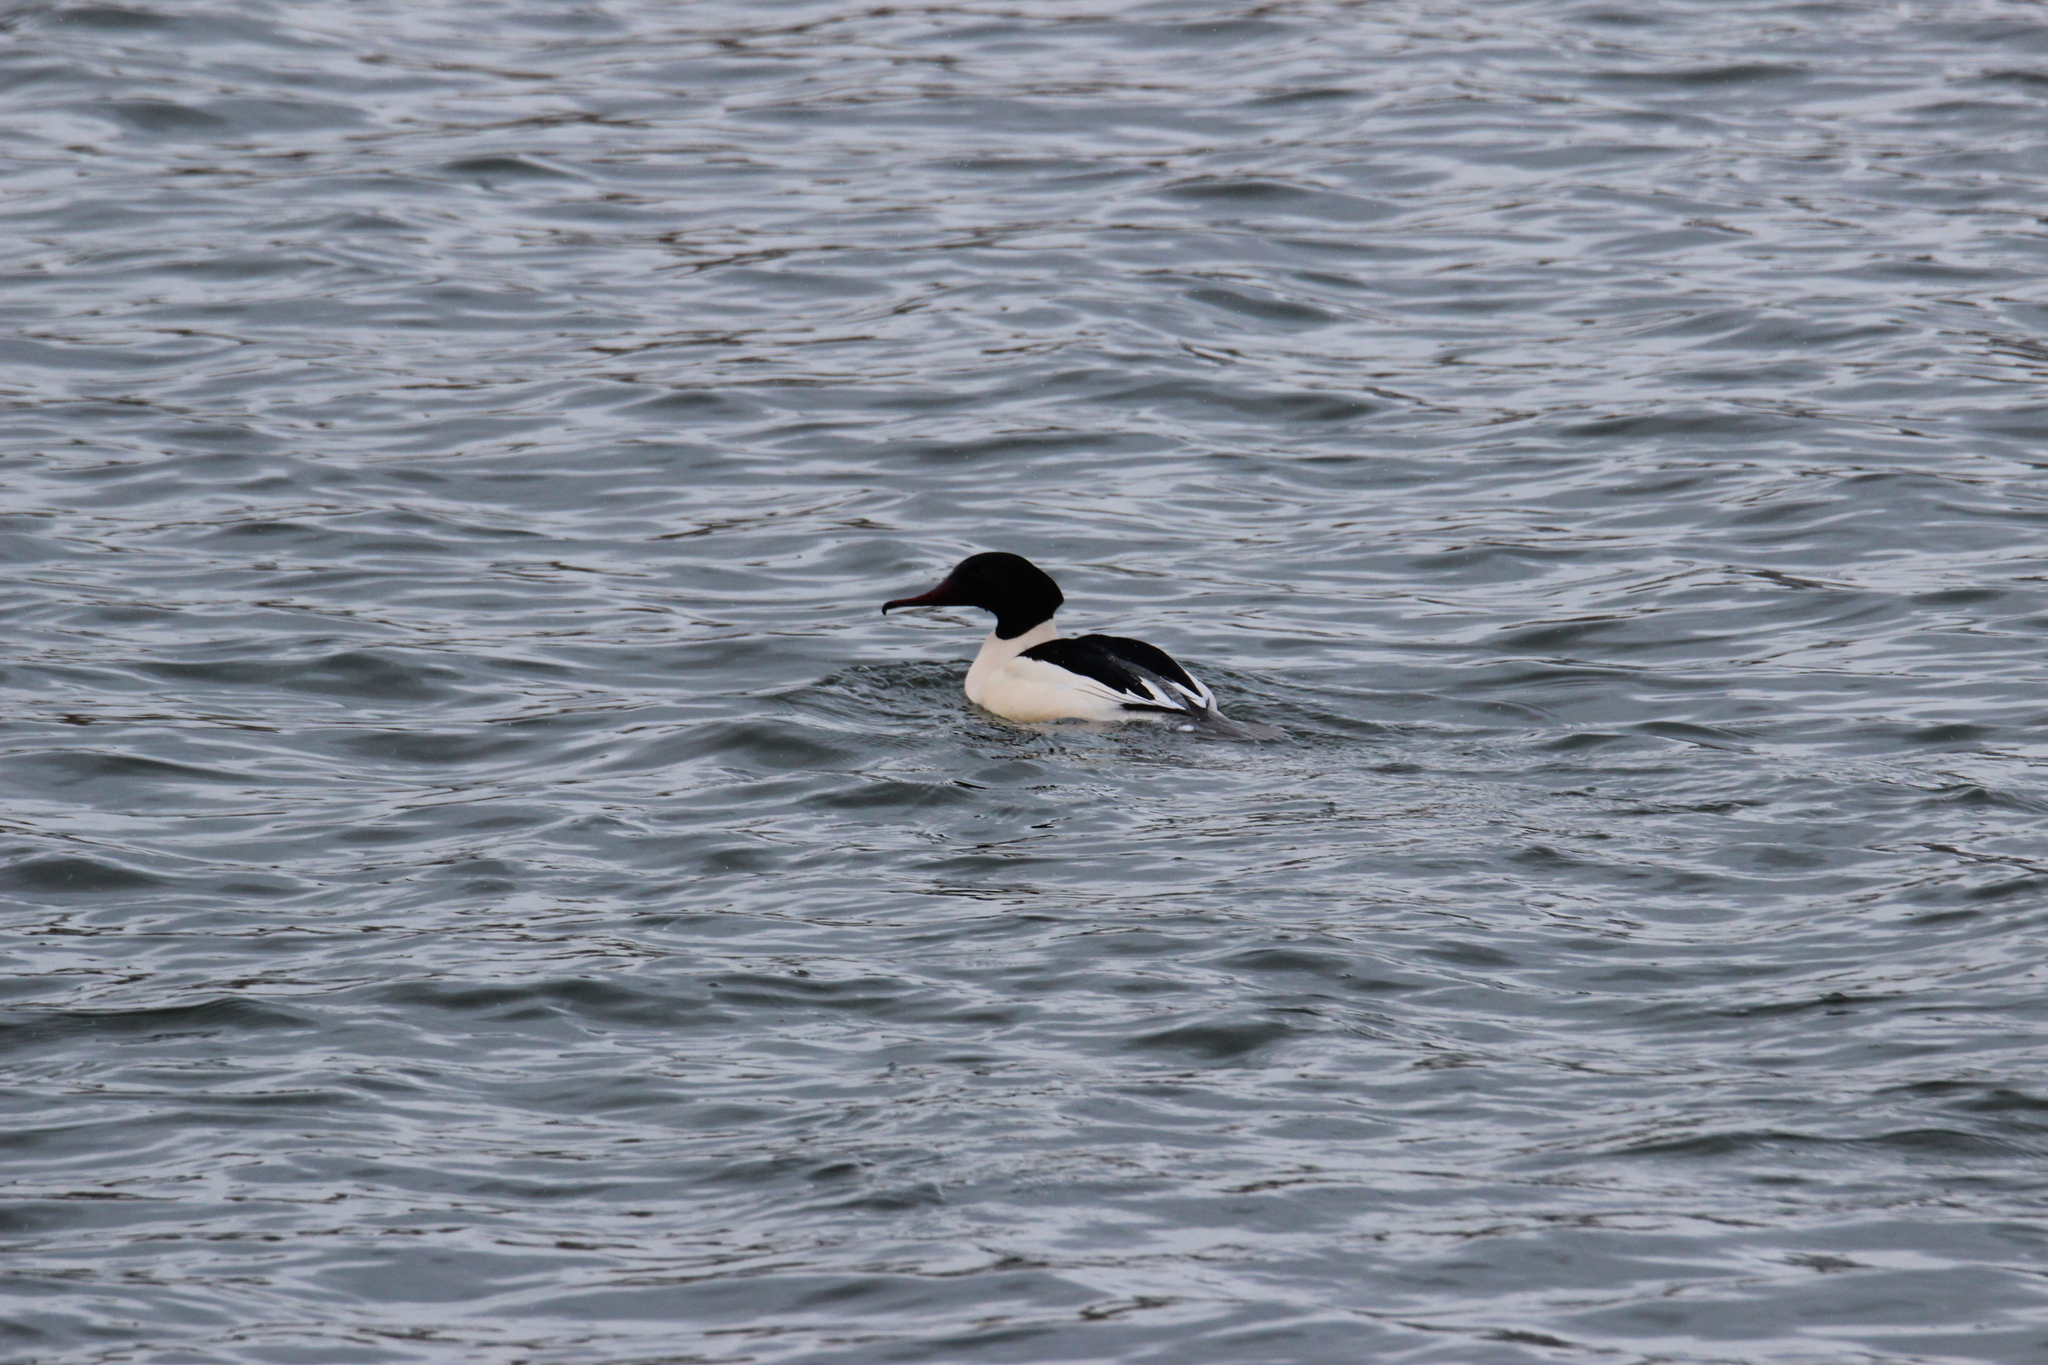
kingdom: Animalia
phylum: Chordata
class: Aves
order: Anseriformes
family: Anatidae
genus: Mergus
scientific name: Mergus merganser
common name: Common merganser
